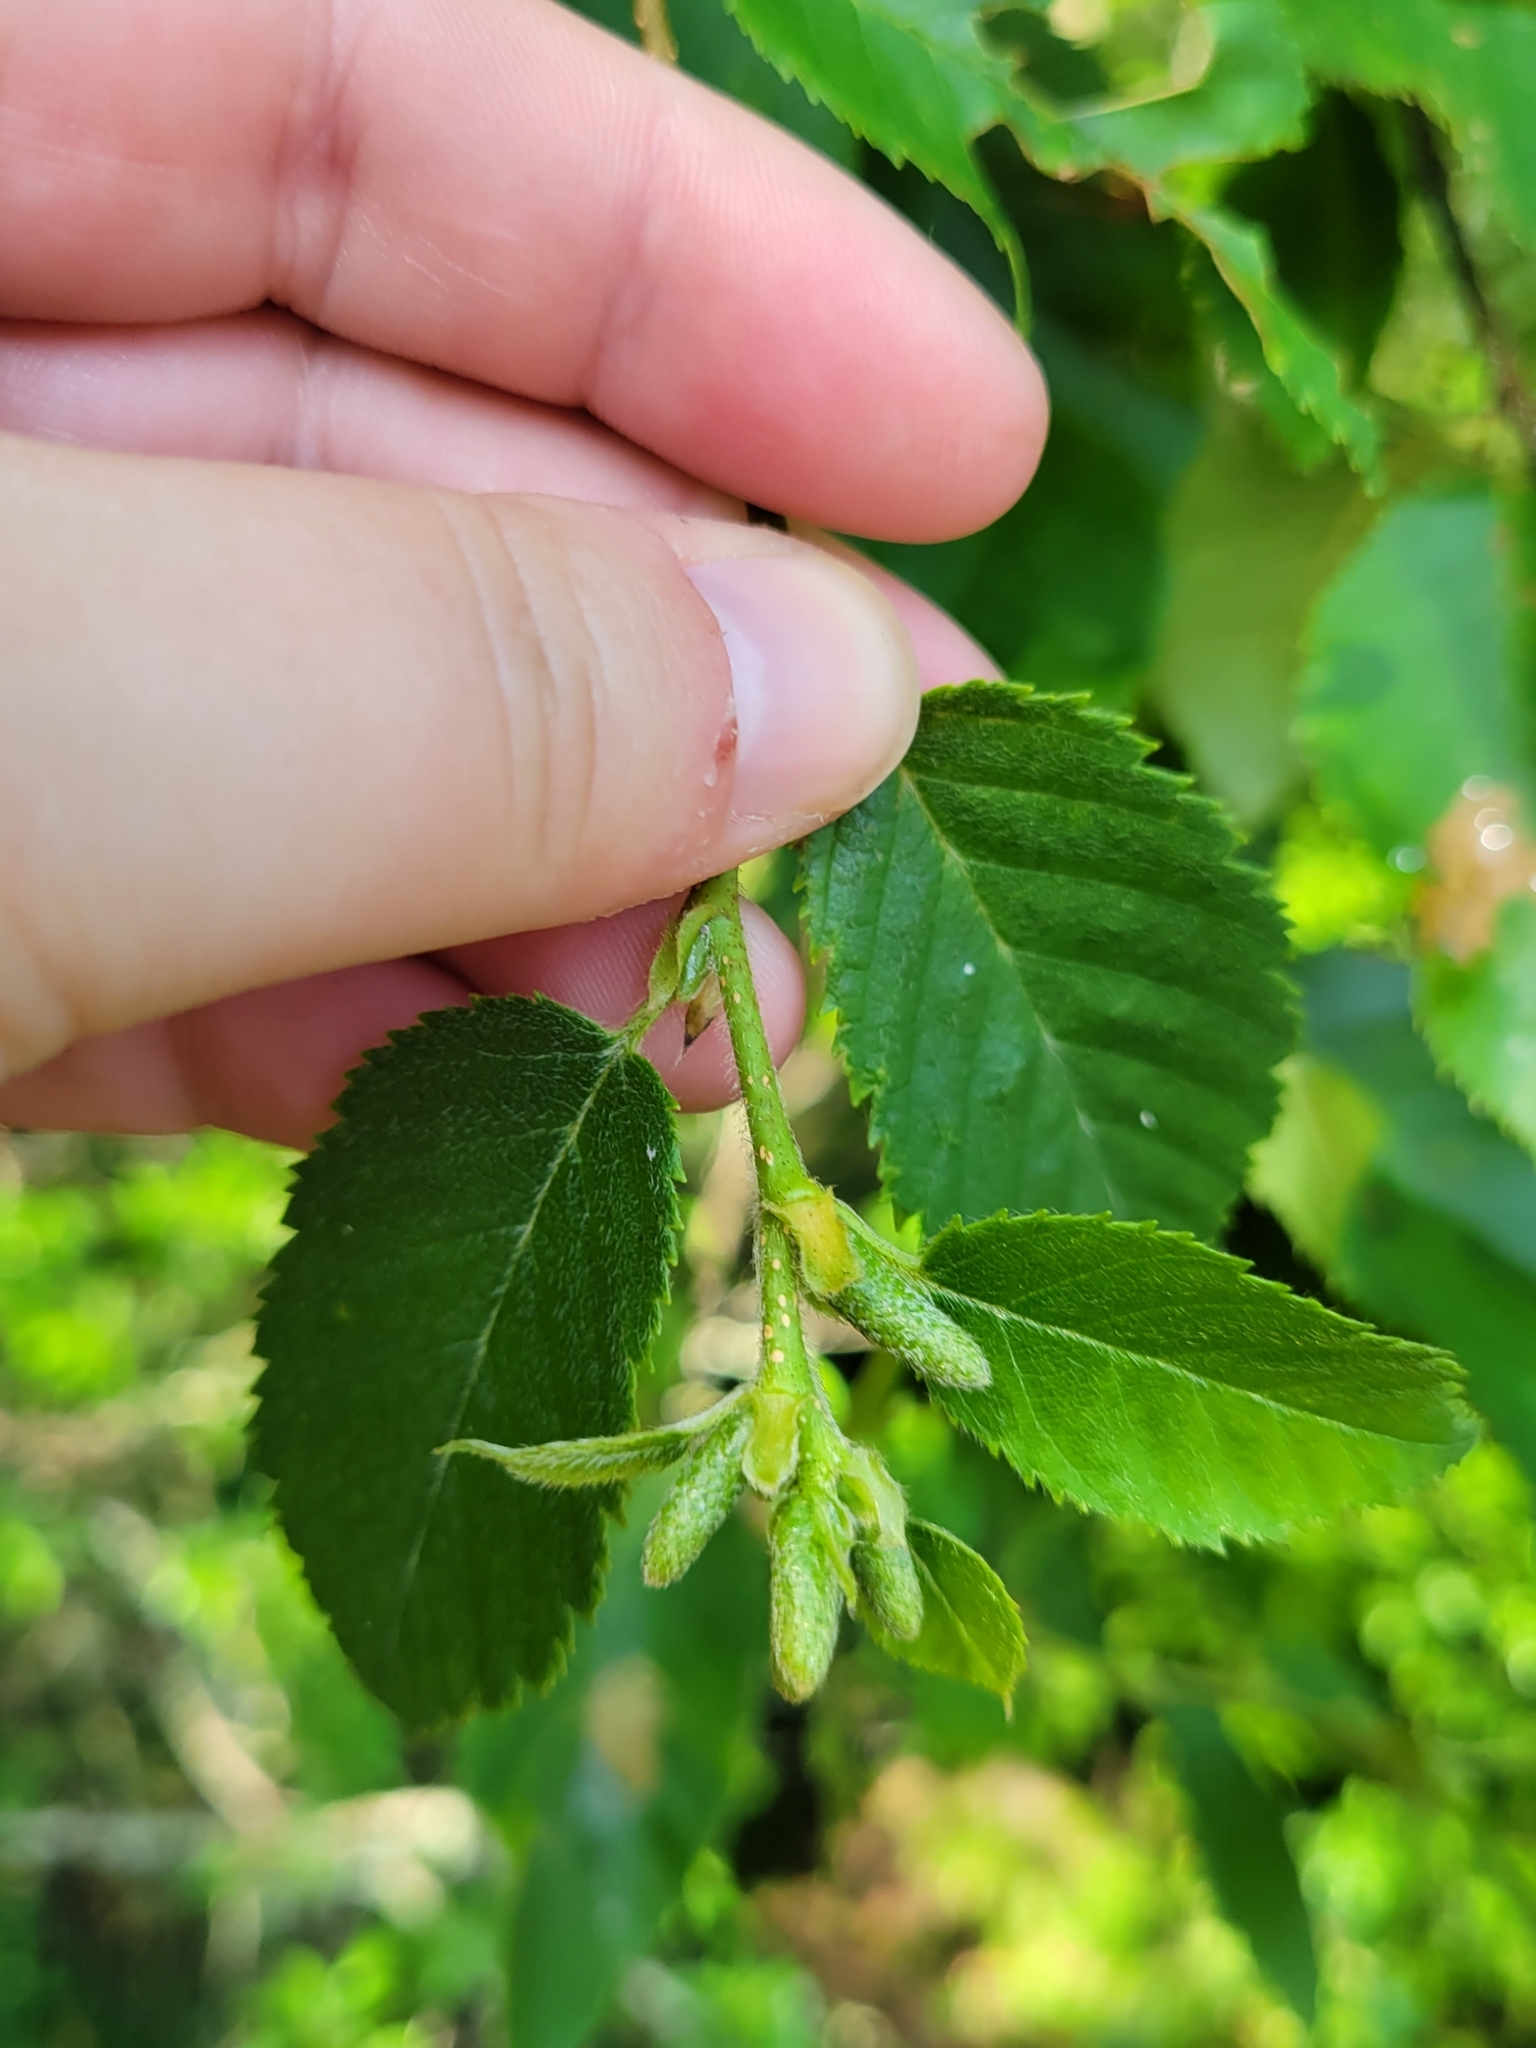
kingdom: Plantae
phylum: Tracheophyta
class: Magnoliopsida
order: Fagales
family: Betulaceae
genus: Betula
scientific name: Betula alleghaniensis
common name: Yellow birch
